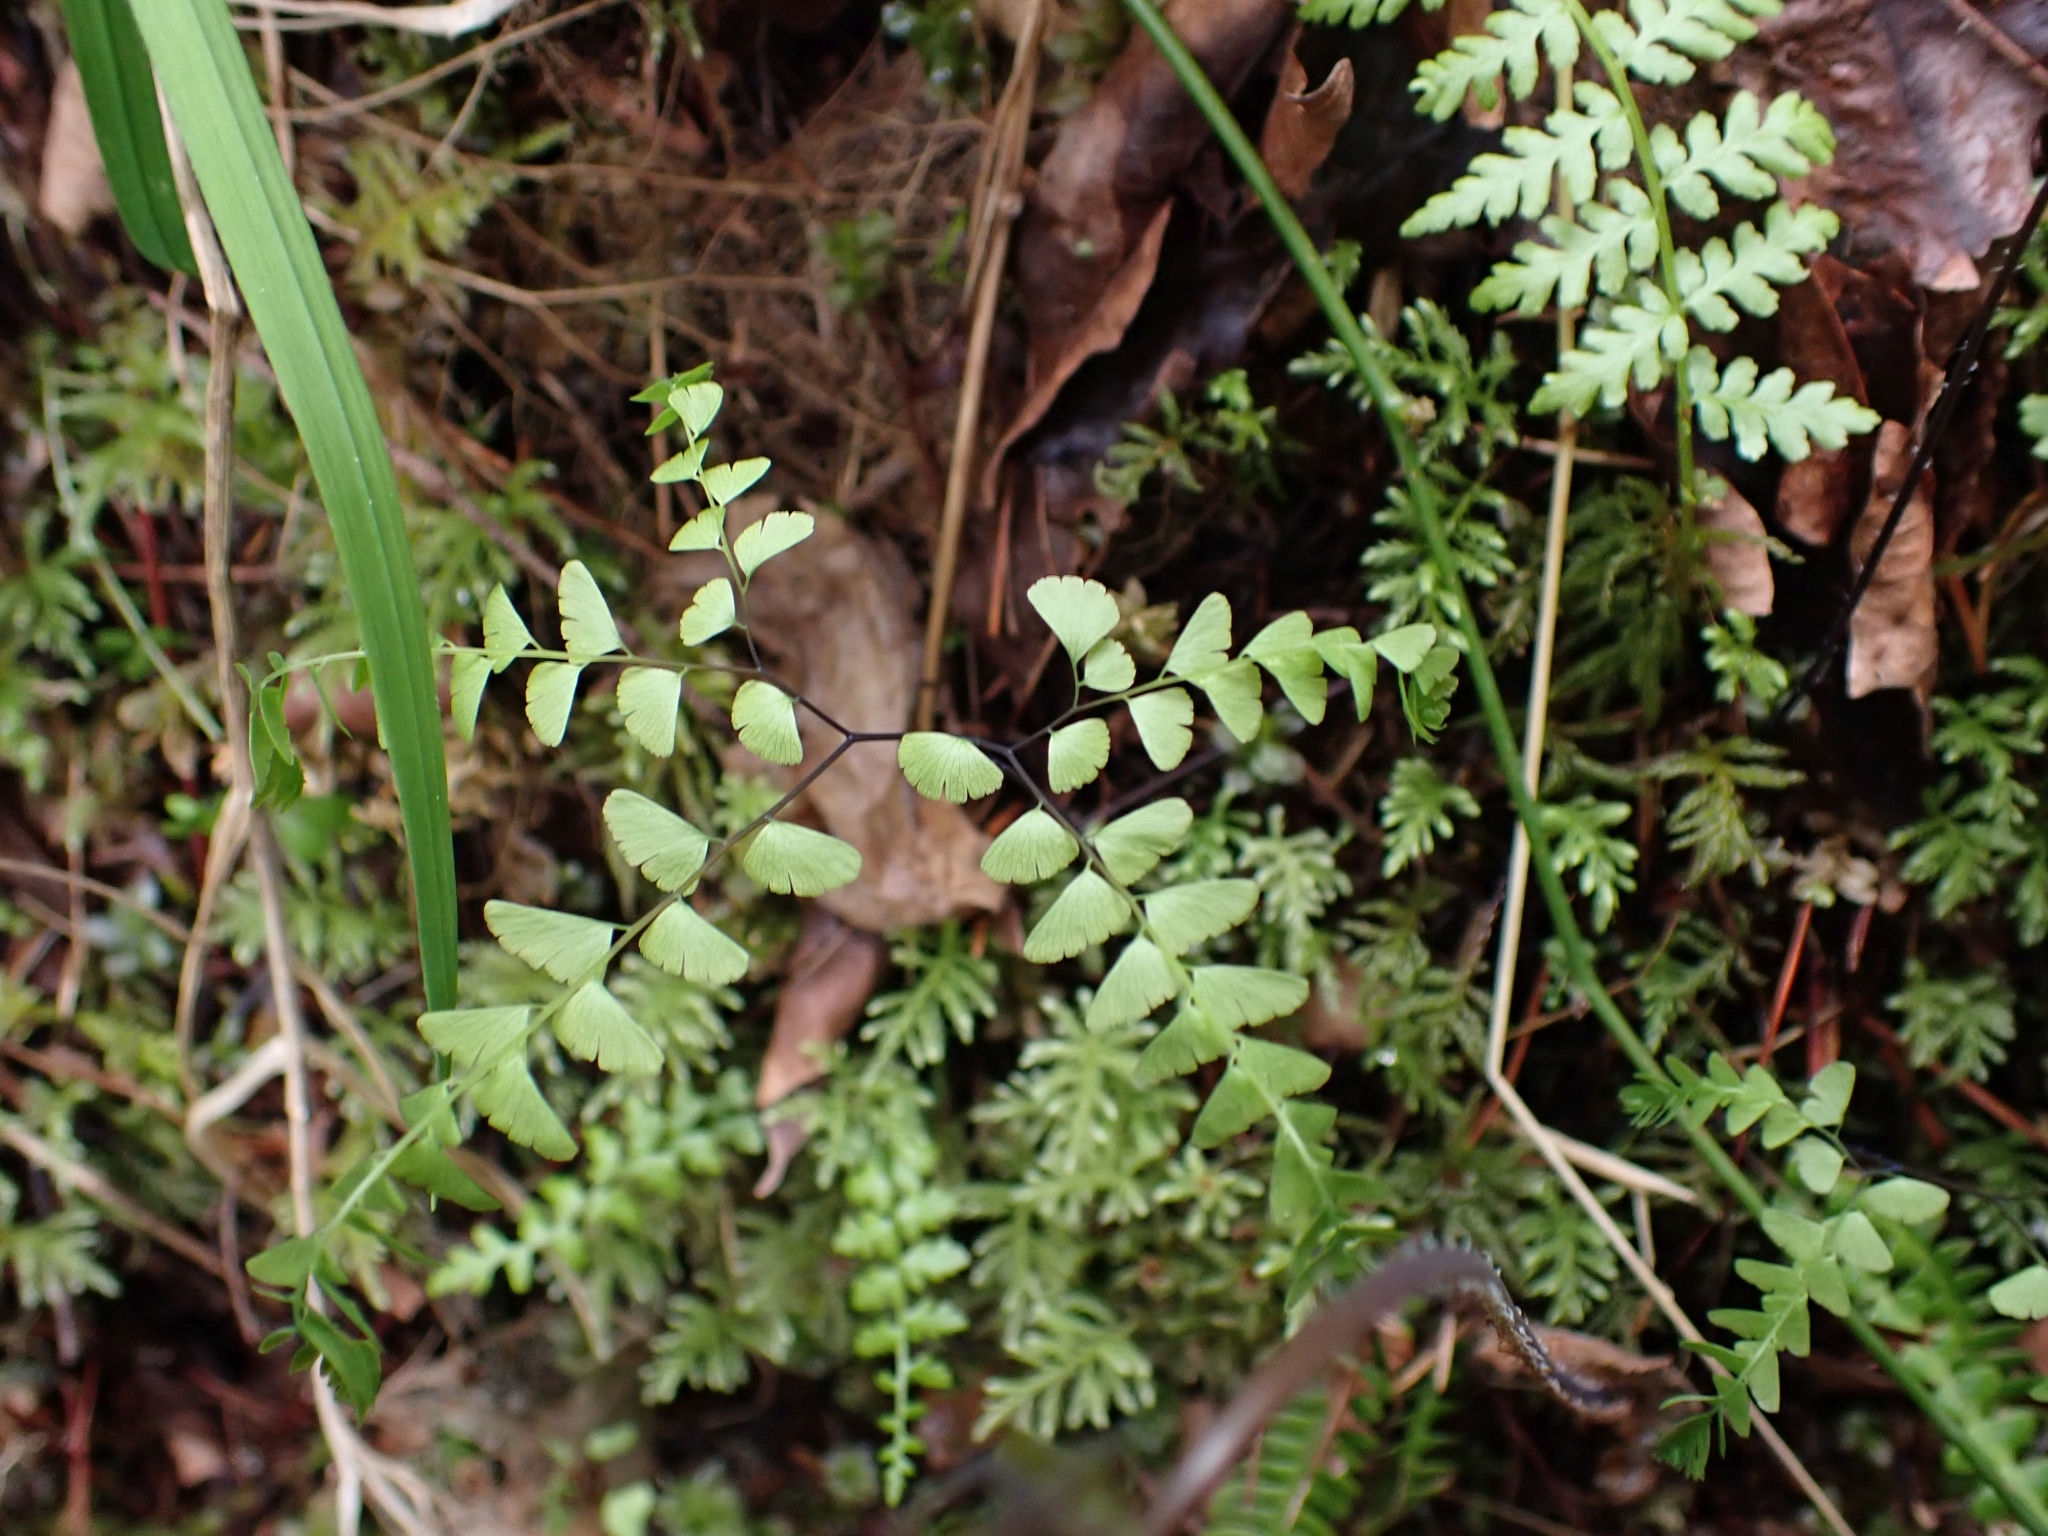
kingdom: Plantae
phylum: Tracheophyta
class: Polypodiopsida
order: Polypodiales
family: Pteridaceae
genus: Adiantum
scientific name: Adiantum aleuticum
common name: Aleutian maidenhair fern
